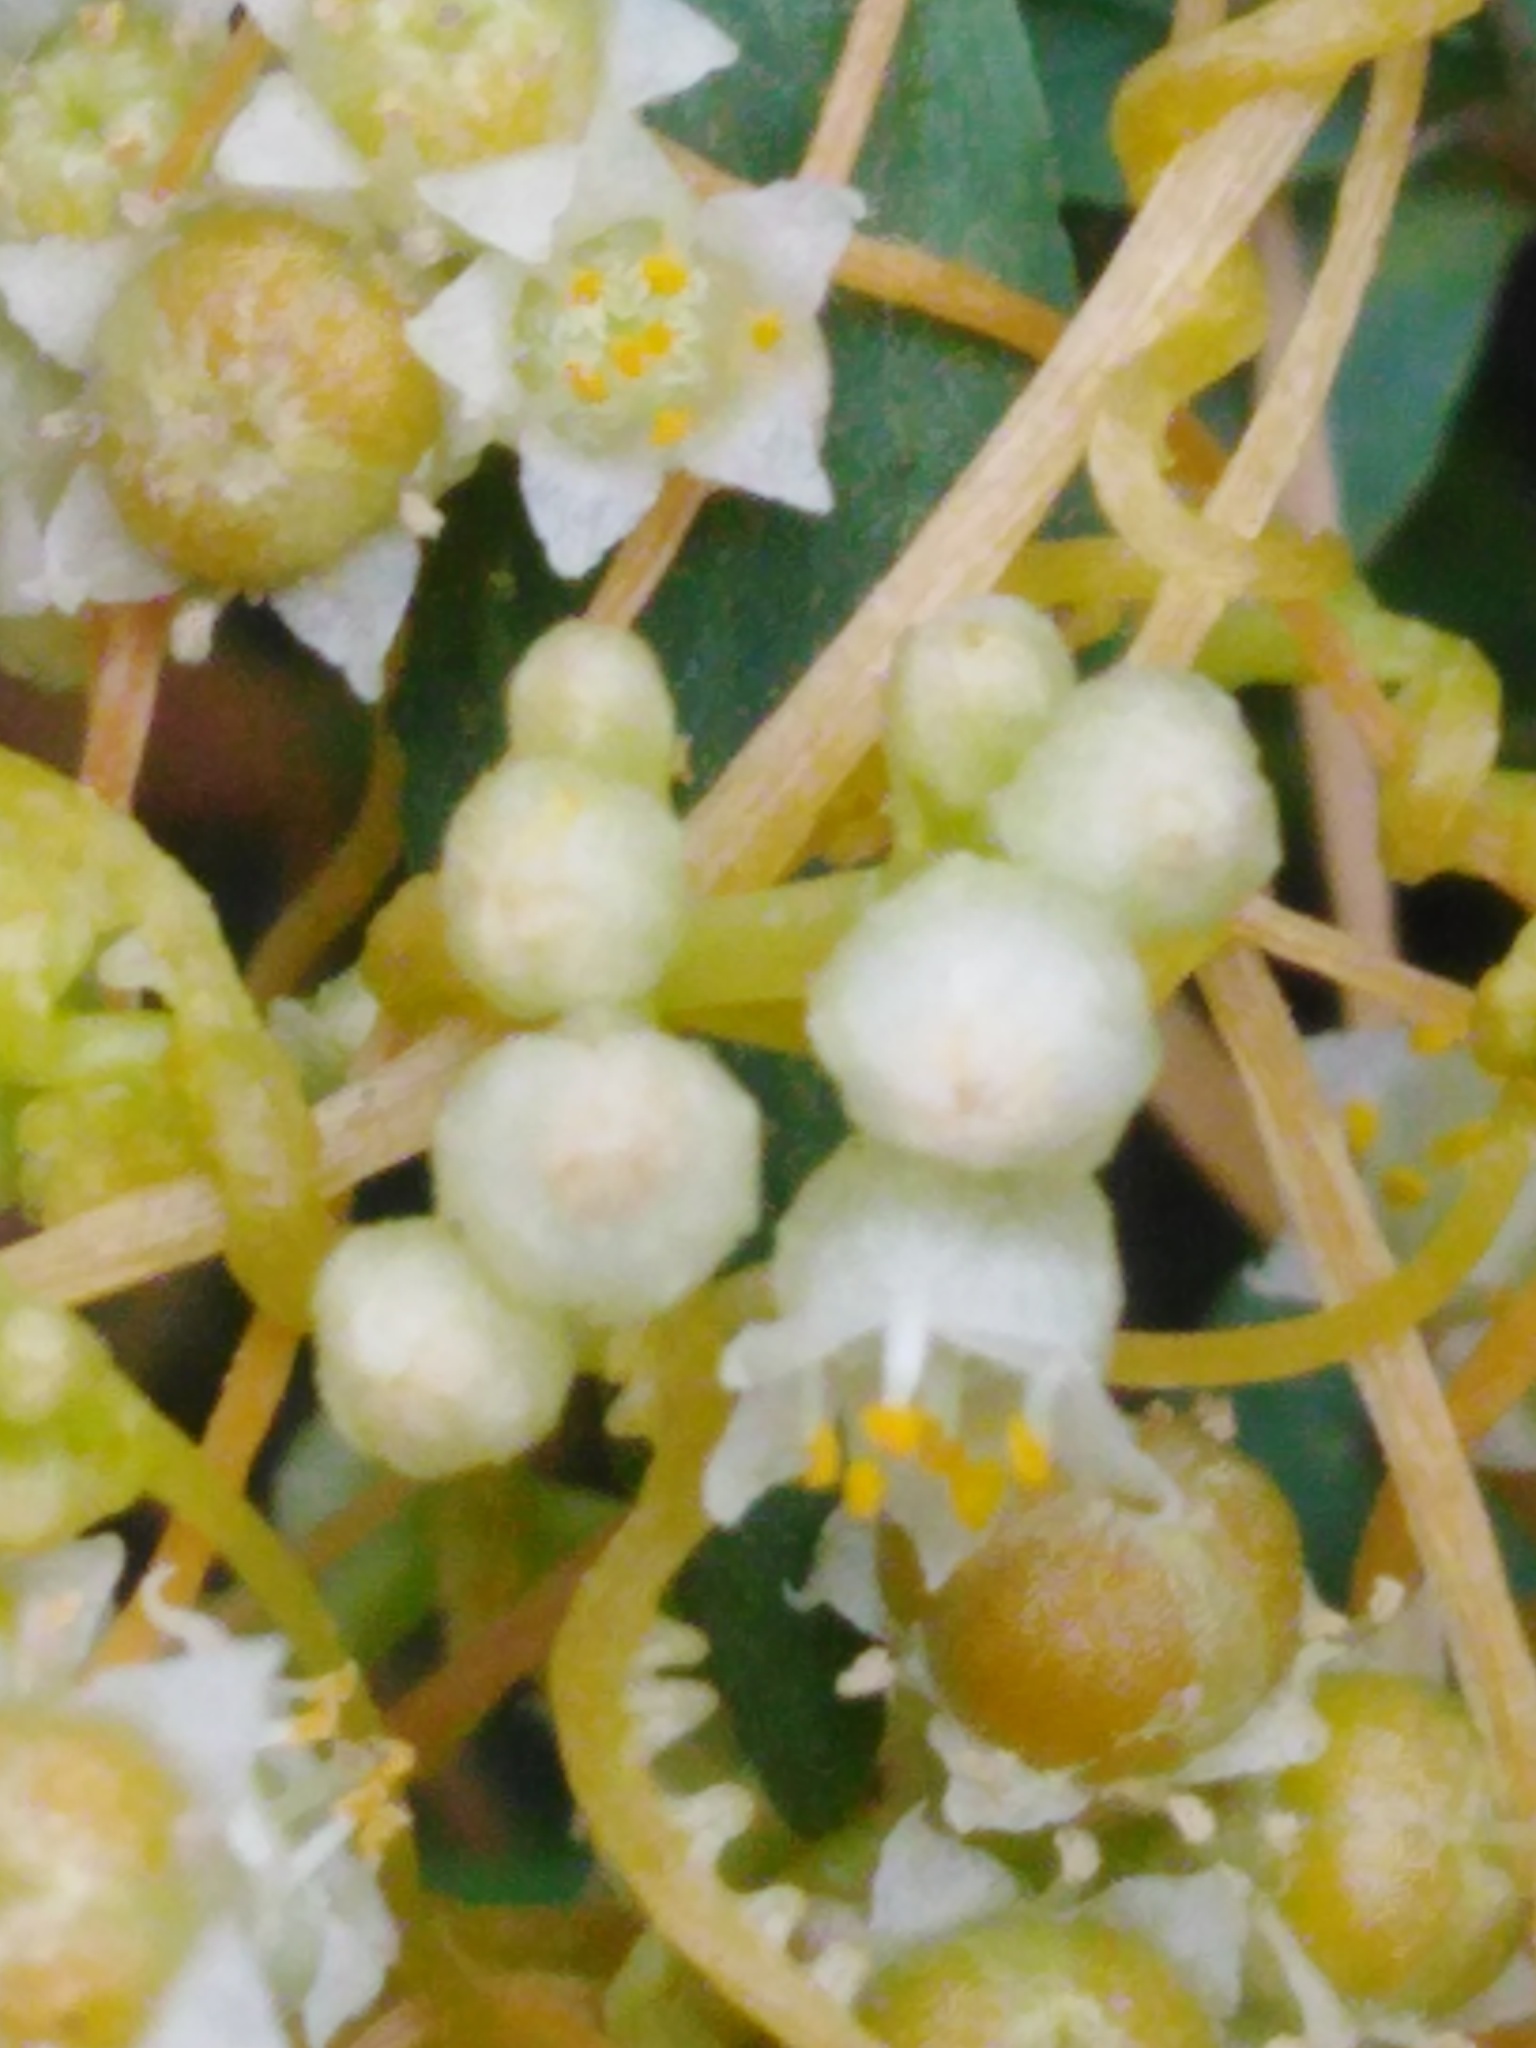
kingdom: Plantae
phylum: Tracheophyta
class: Magnoliopsida
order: Solanales
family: Convolvulaceae
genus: Cuscuta
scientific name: Cuscuta campestris
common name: Yellow dodder
